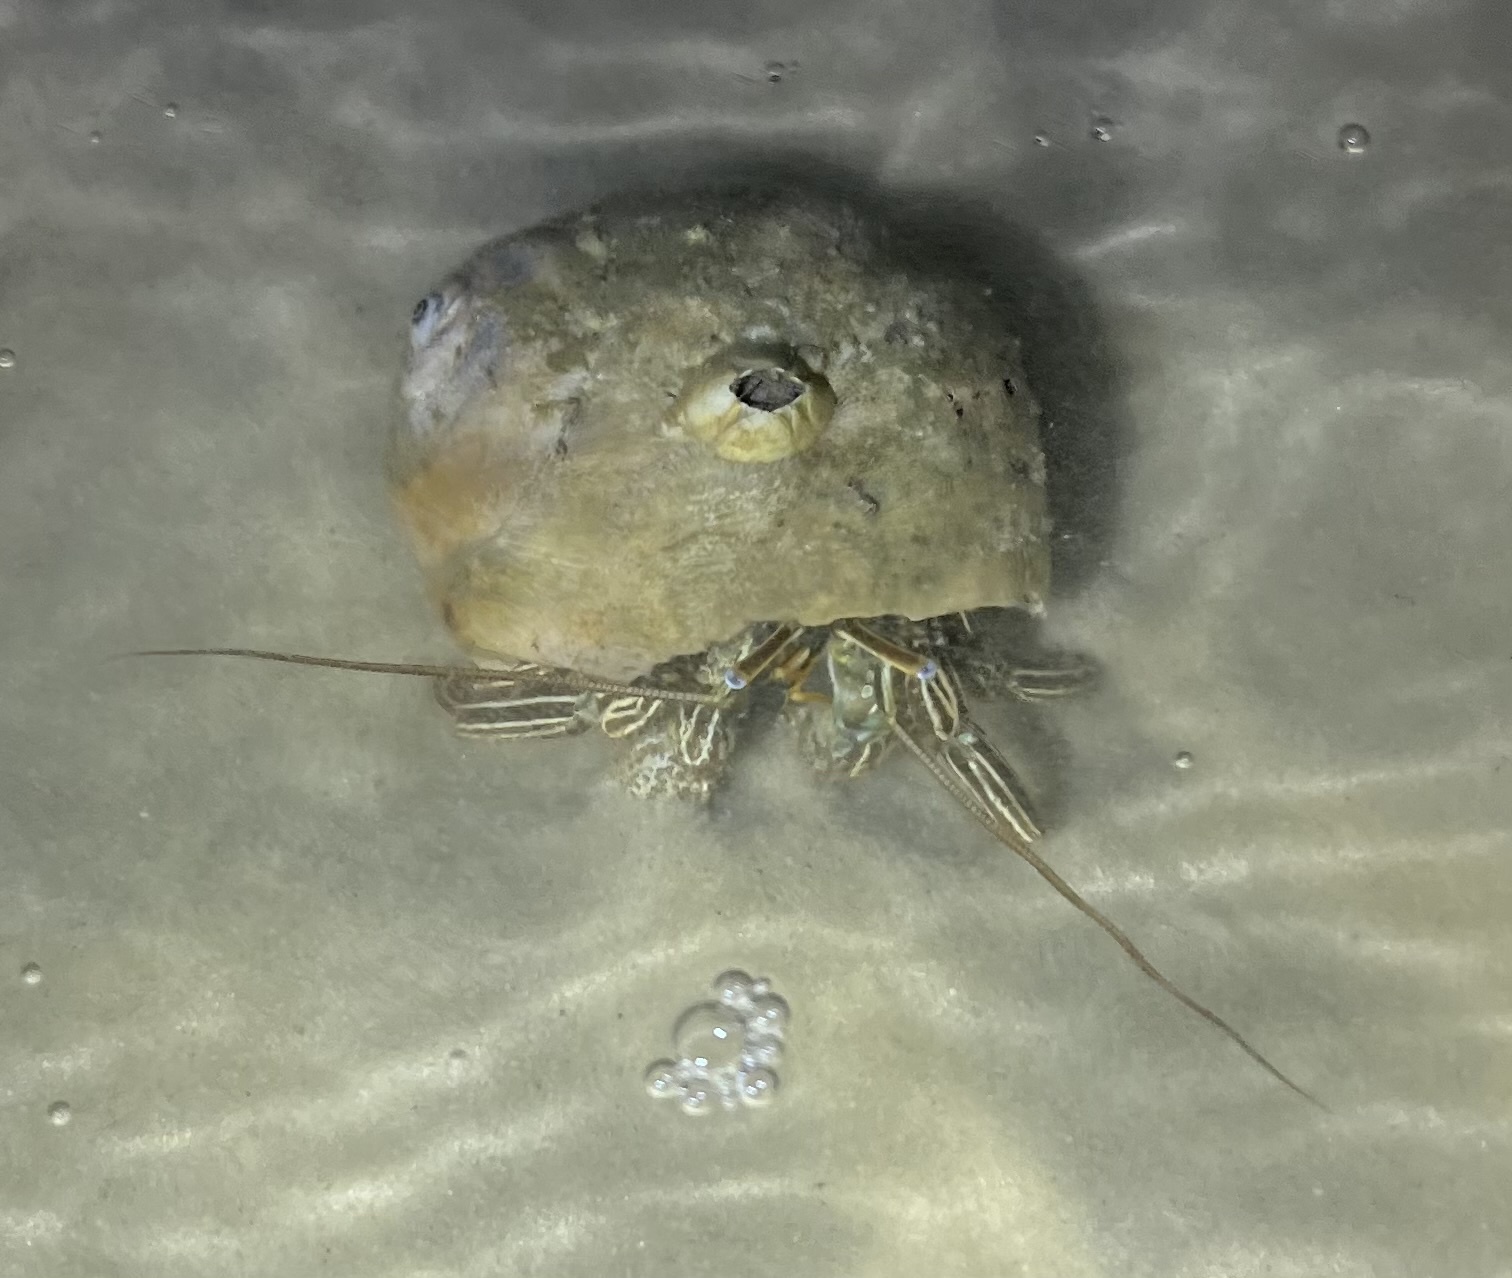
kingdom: Animalia
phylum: Arthropoda
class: Malacostraca
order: Decapoda
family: Diogenidae
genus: Clibanarius
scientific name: Clibanarius vittatus
